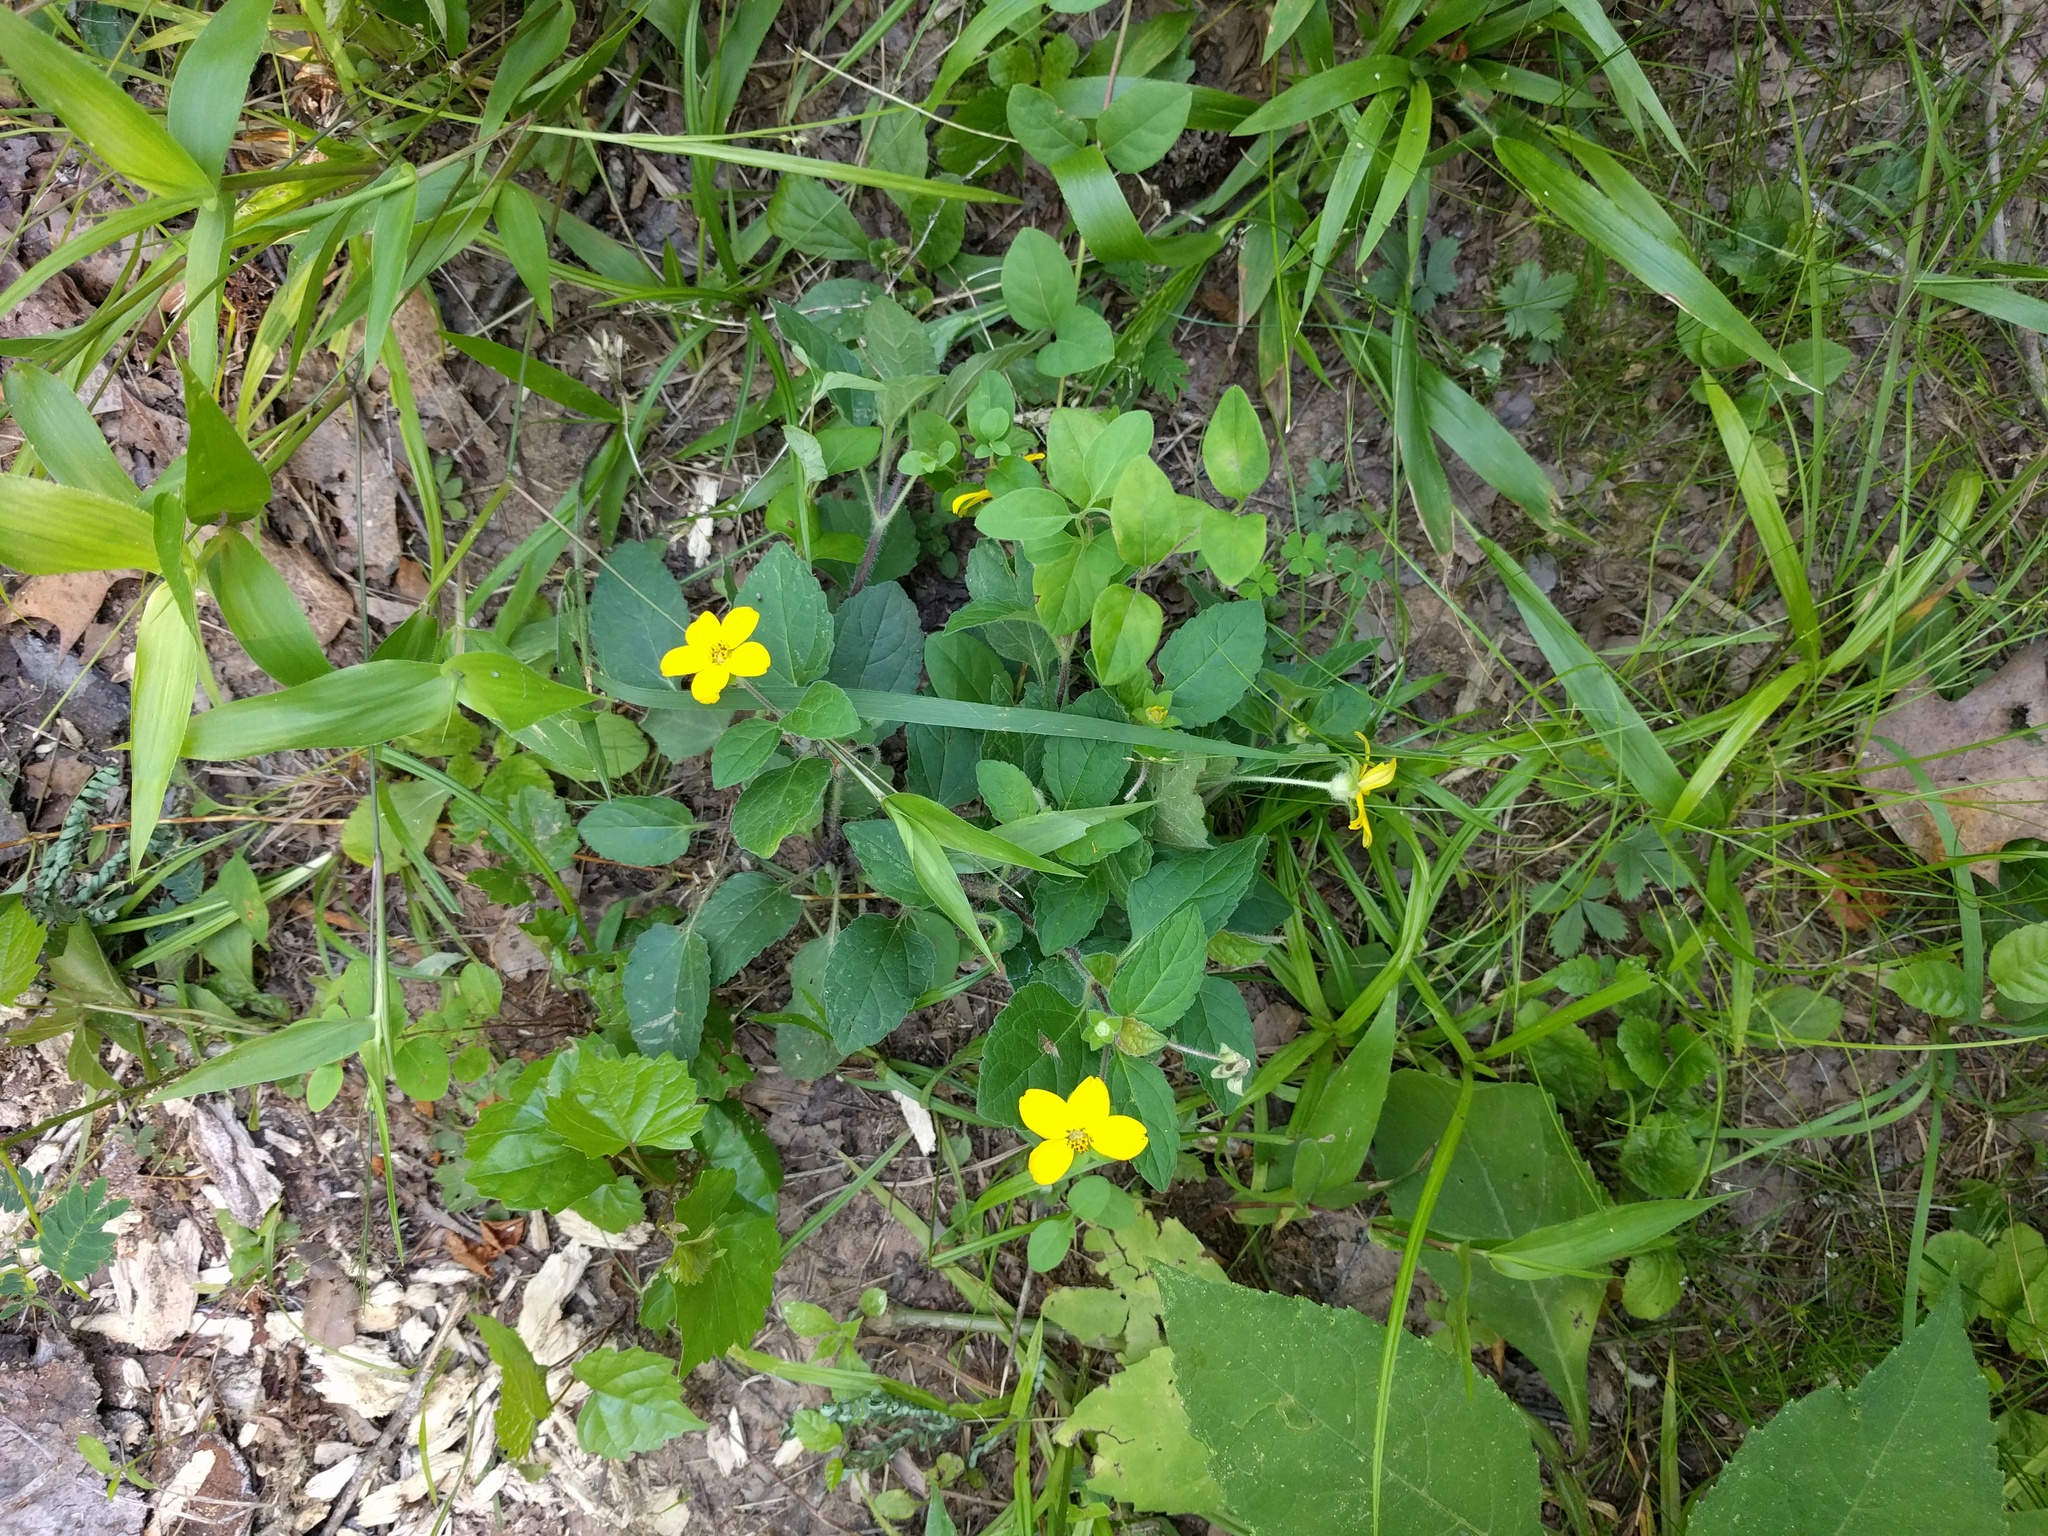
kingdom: Plantae
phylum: Tracheophyta
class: Magnoliopsida
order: Asterales
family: Asteraceae
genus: Chrysogonum
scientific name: Chrysogonum virginianum
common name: Golden-knee
